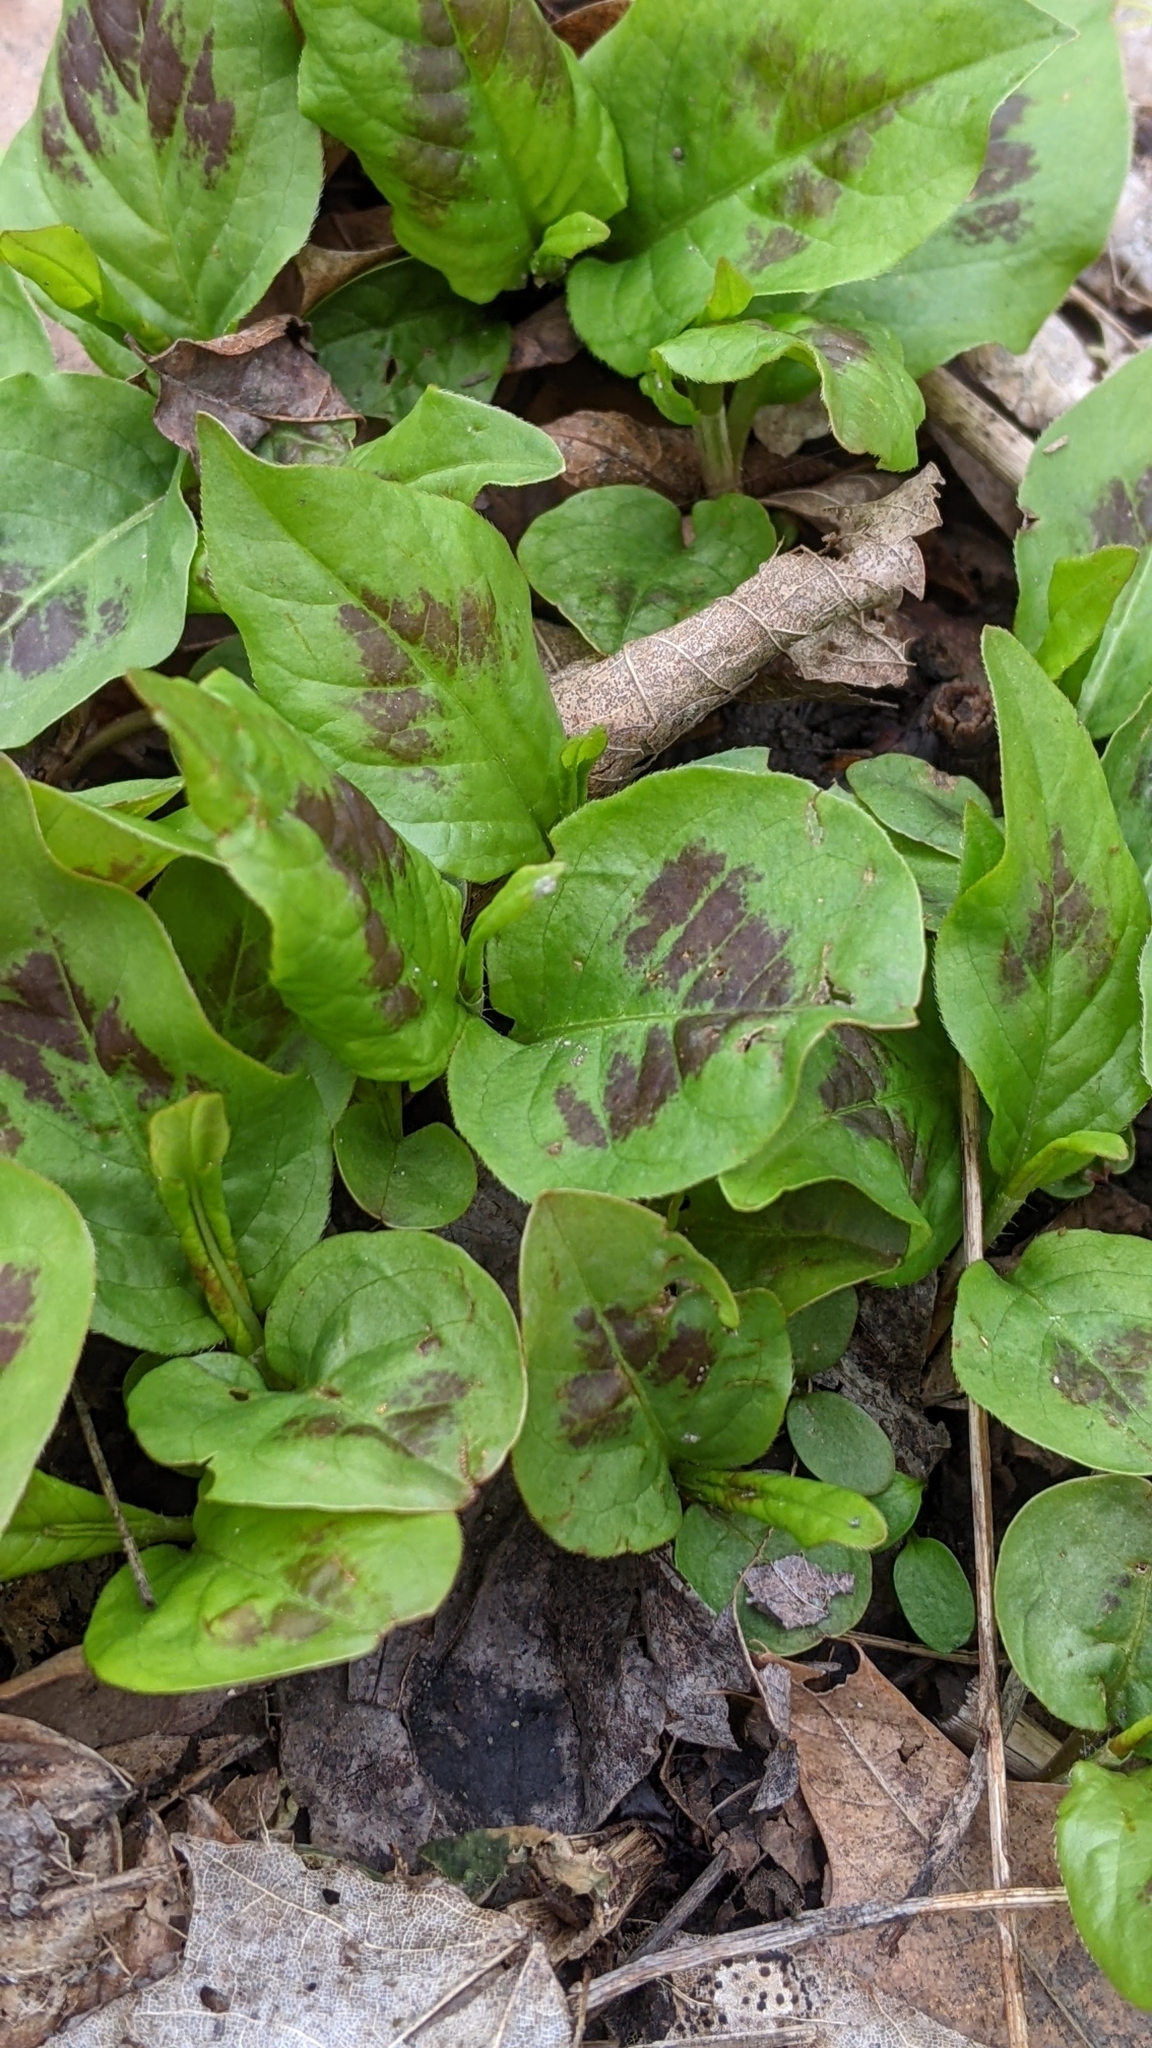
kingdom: Plantae
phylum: Tracheophyta
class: Magnoliopsida
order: Caryophyllales
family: Polygonaceae
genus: Persicaria
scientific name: Persicaria virginiana
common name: Jumpseed
